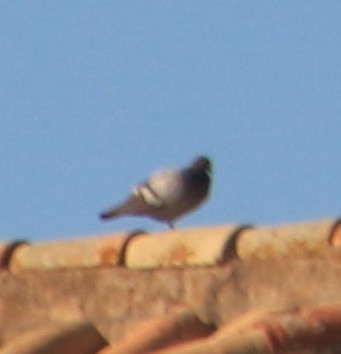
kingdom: Animalia
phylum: Chordata
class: Aves
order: Columbiformes
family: Columbidae
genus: Columba
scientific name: Columba livia
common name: Rock pigeon
